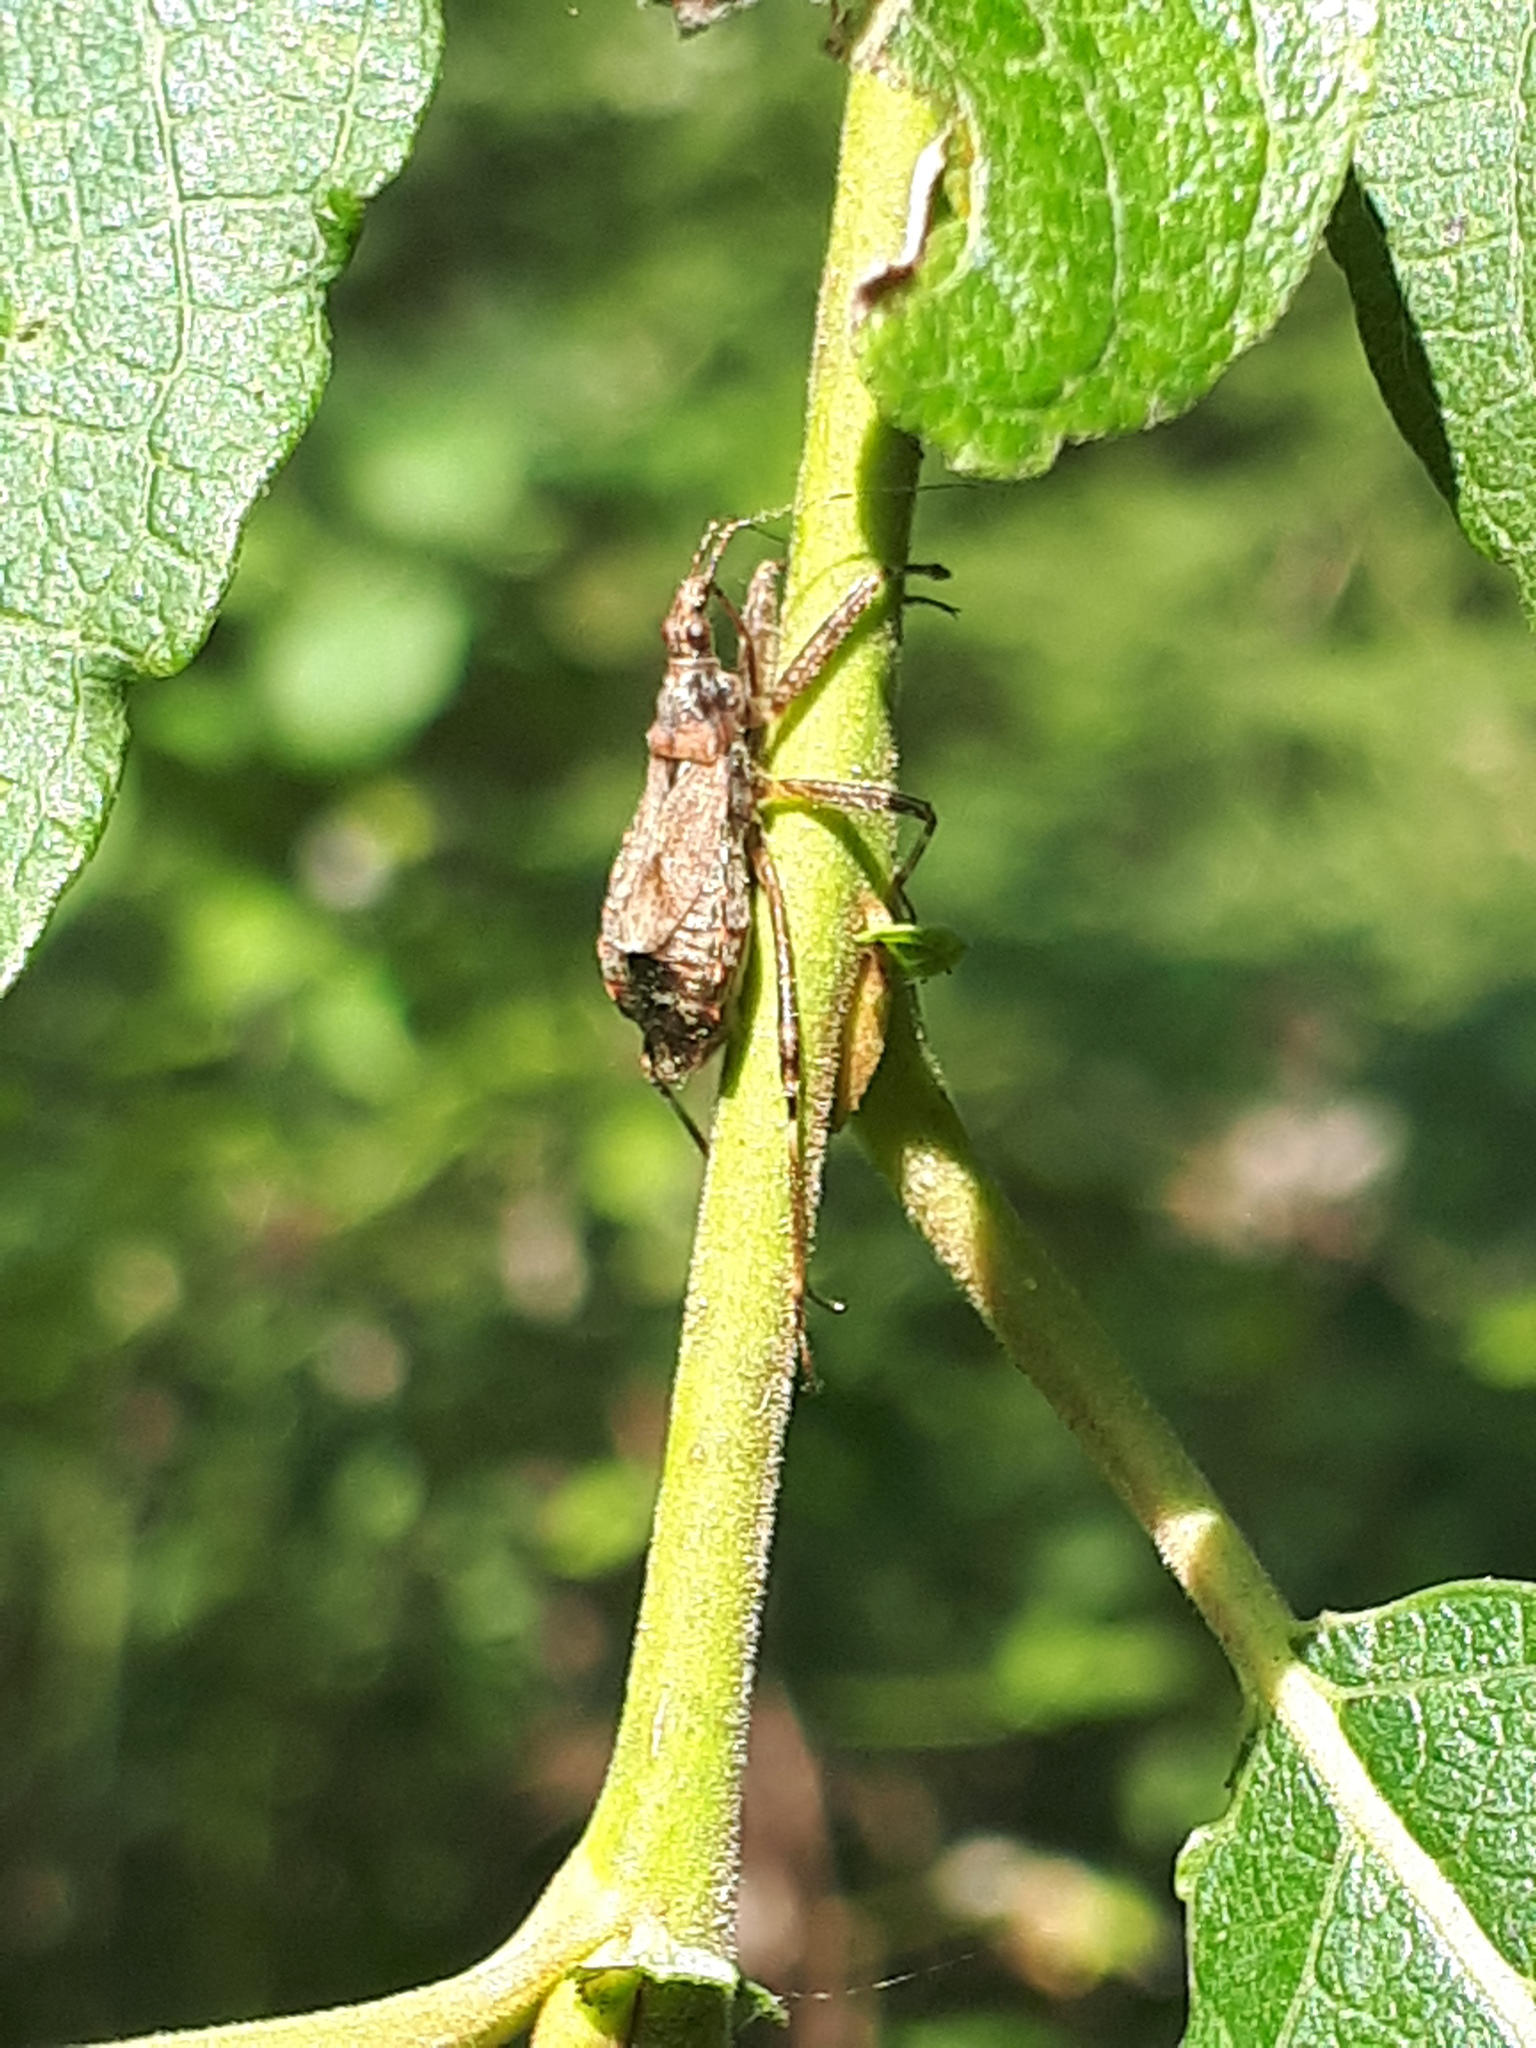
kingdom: Animalia
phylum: Arthropoda
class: Insecta
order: Hemiptera
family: Nabidae
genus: Himacerus
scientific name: Himacerus apterus
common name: Tree damsel bug
